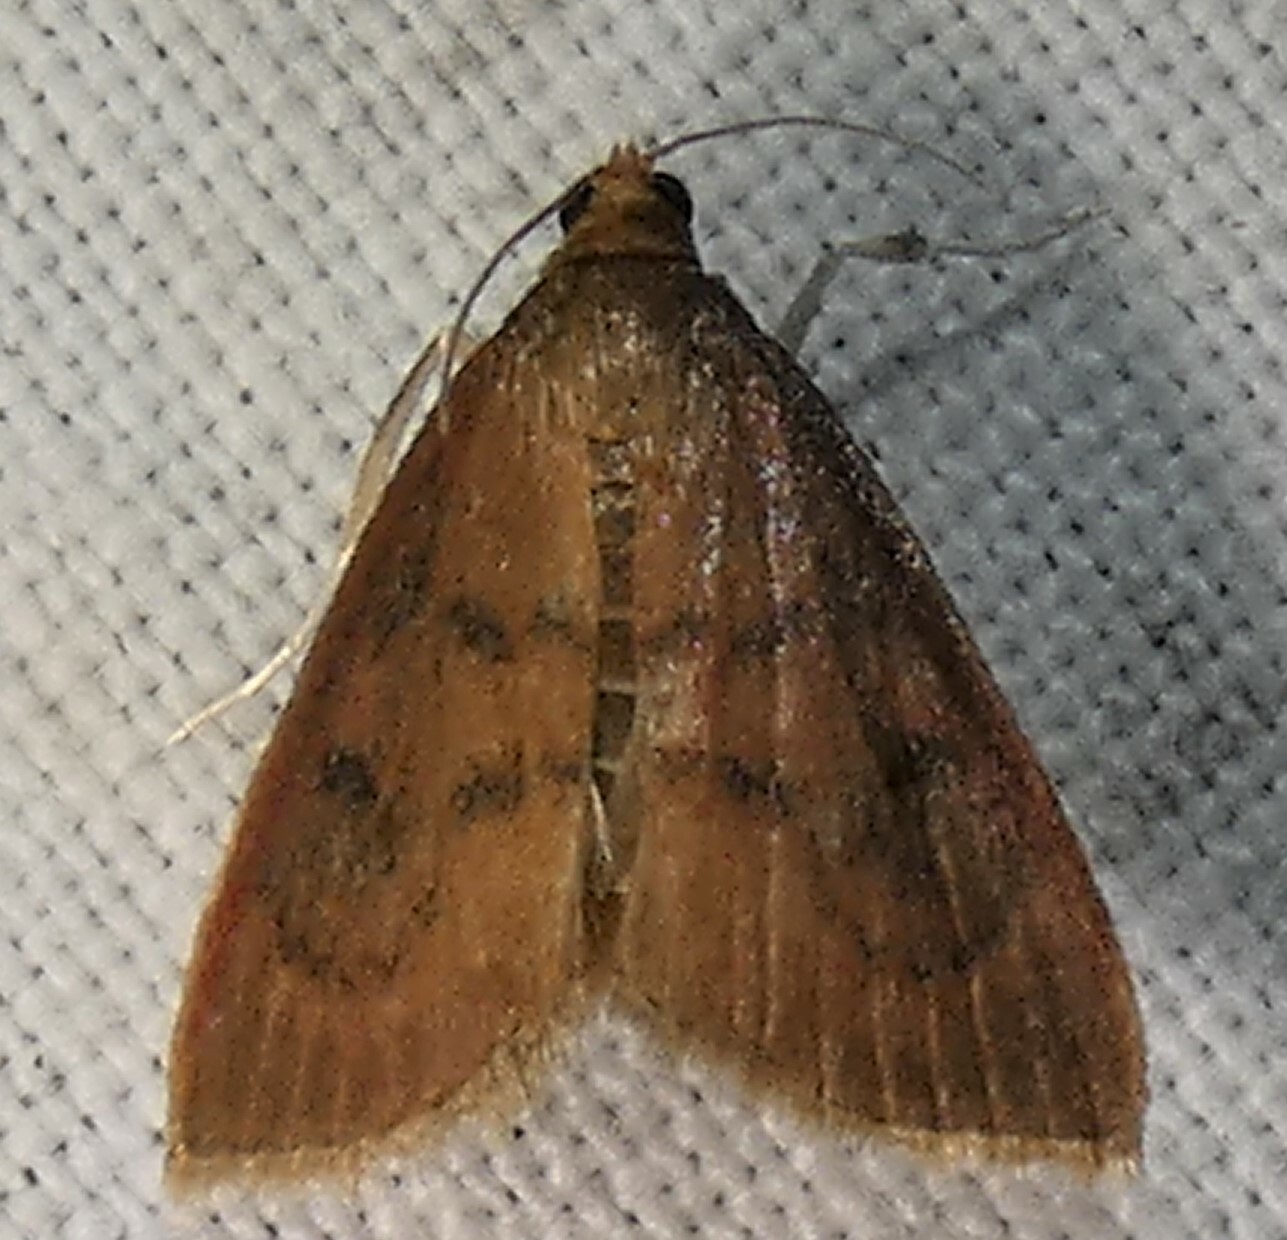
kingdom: Animalia
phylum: Arthropoda
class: Insecta
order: Lepidoptera
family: Crambidae
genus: Oenobotys
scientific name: Oenobotys vinotinctalis
